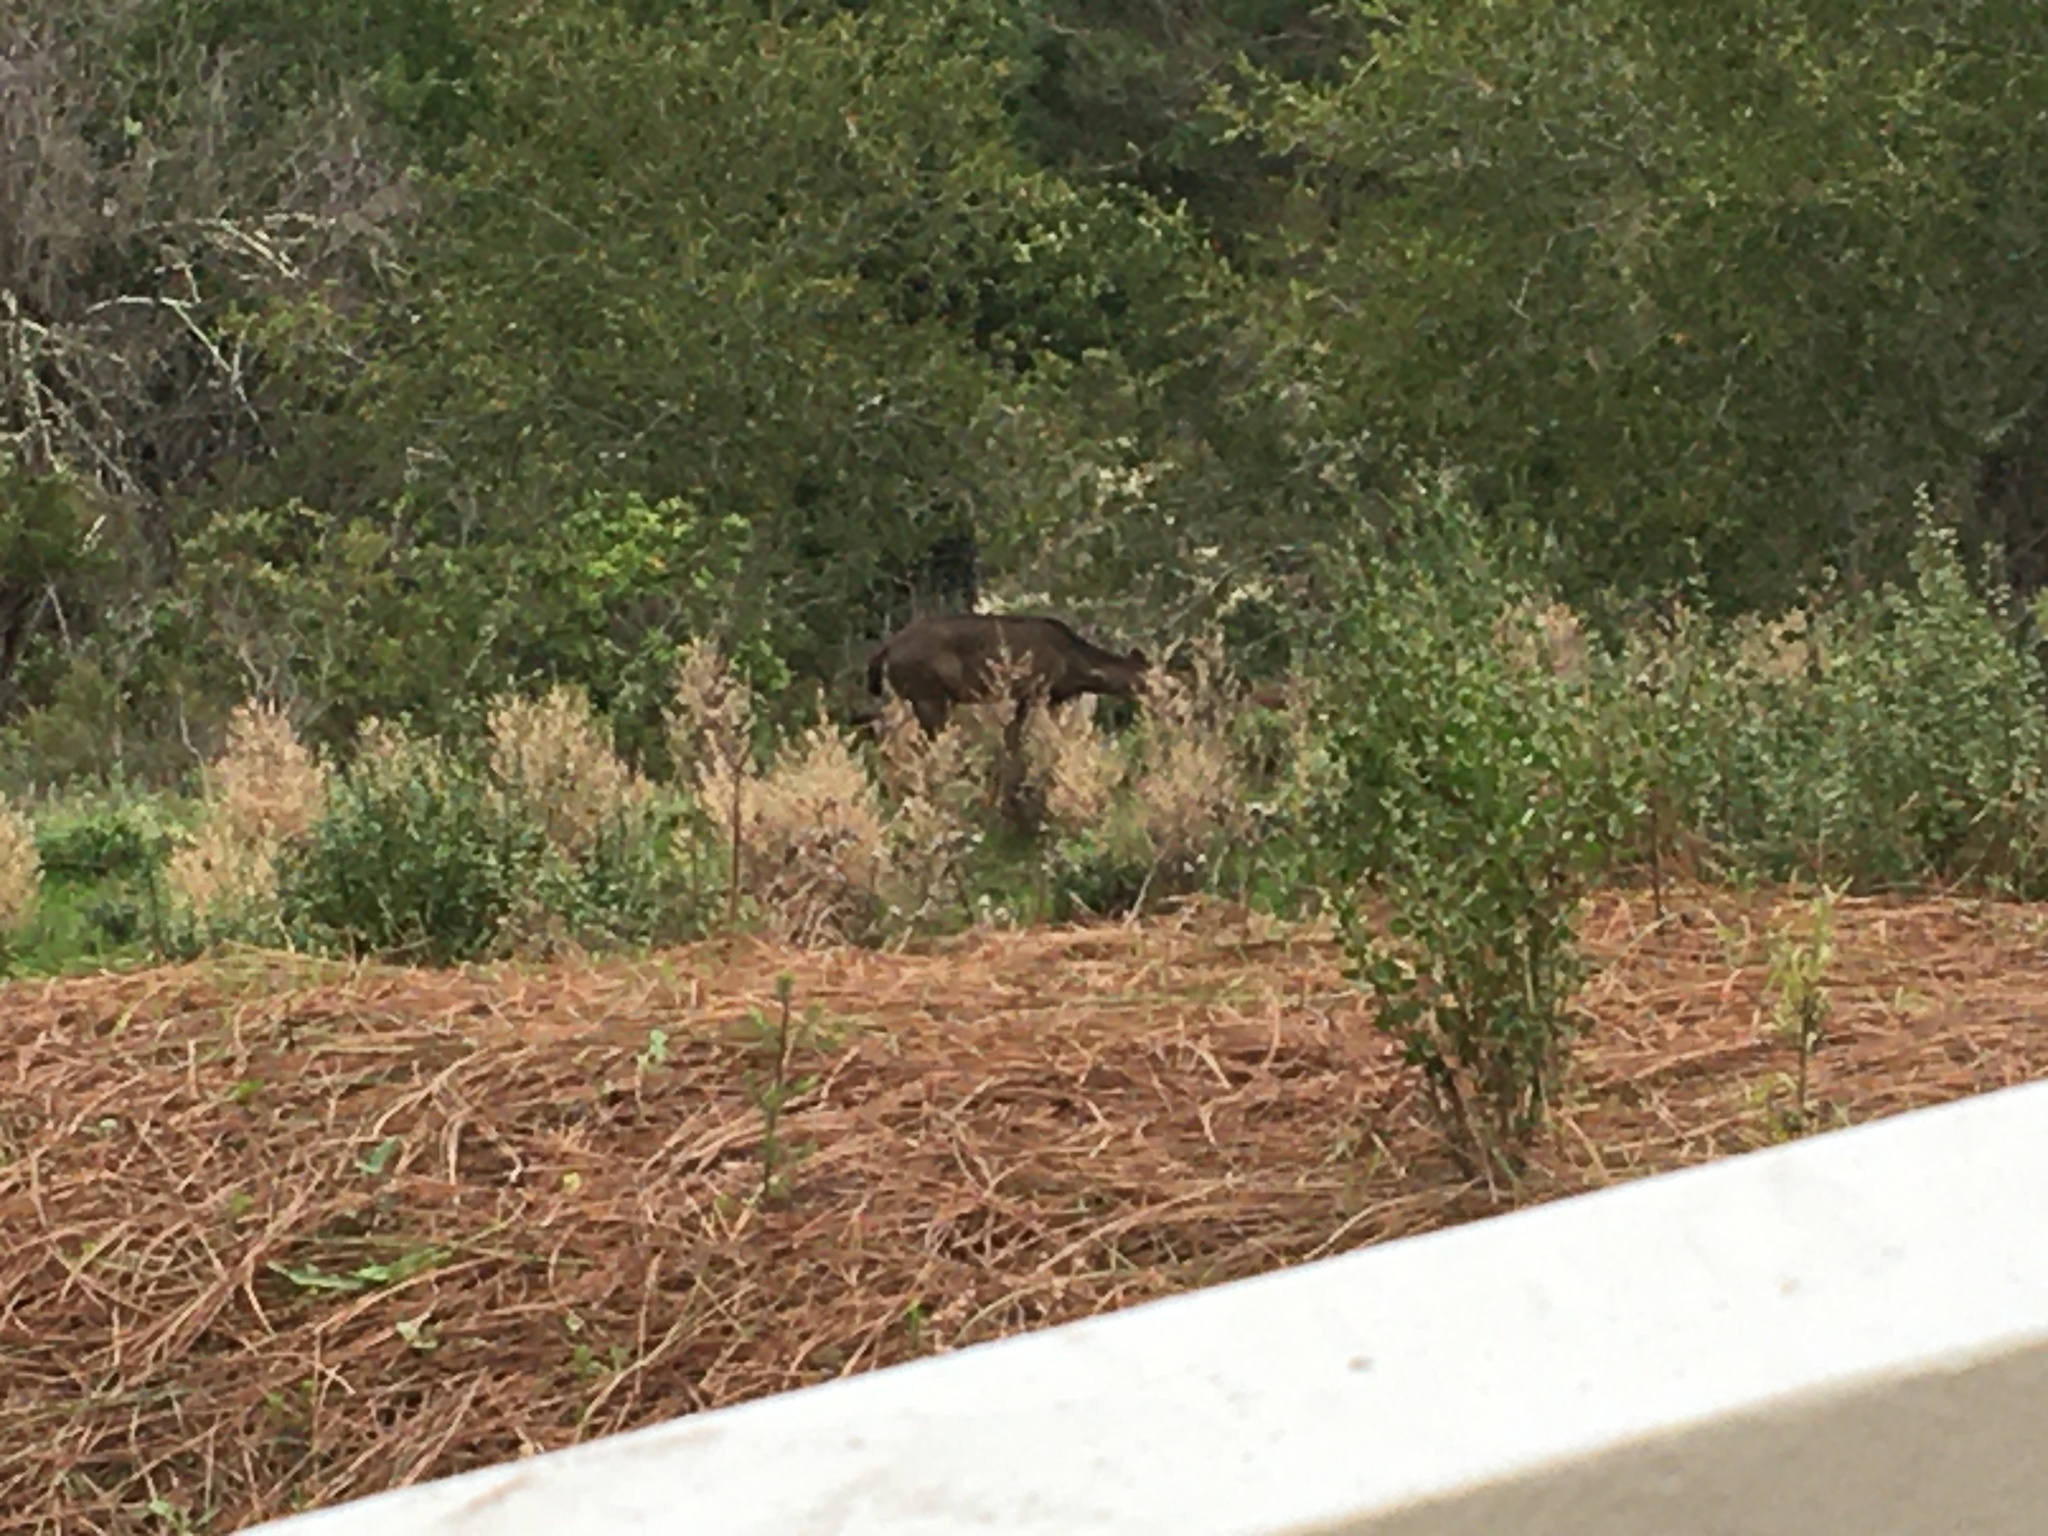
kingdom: Animalia
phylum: Chordata
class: Mammalia
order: Artiodactyla
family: Cervidae
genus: Odocoileus
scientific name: Odocoileus hemionus
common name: Mule deer
